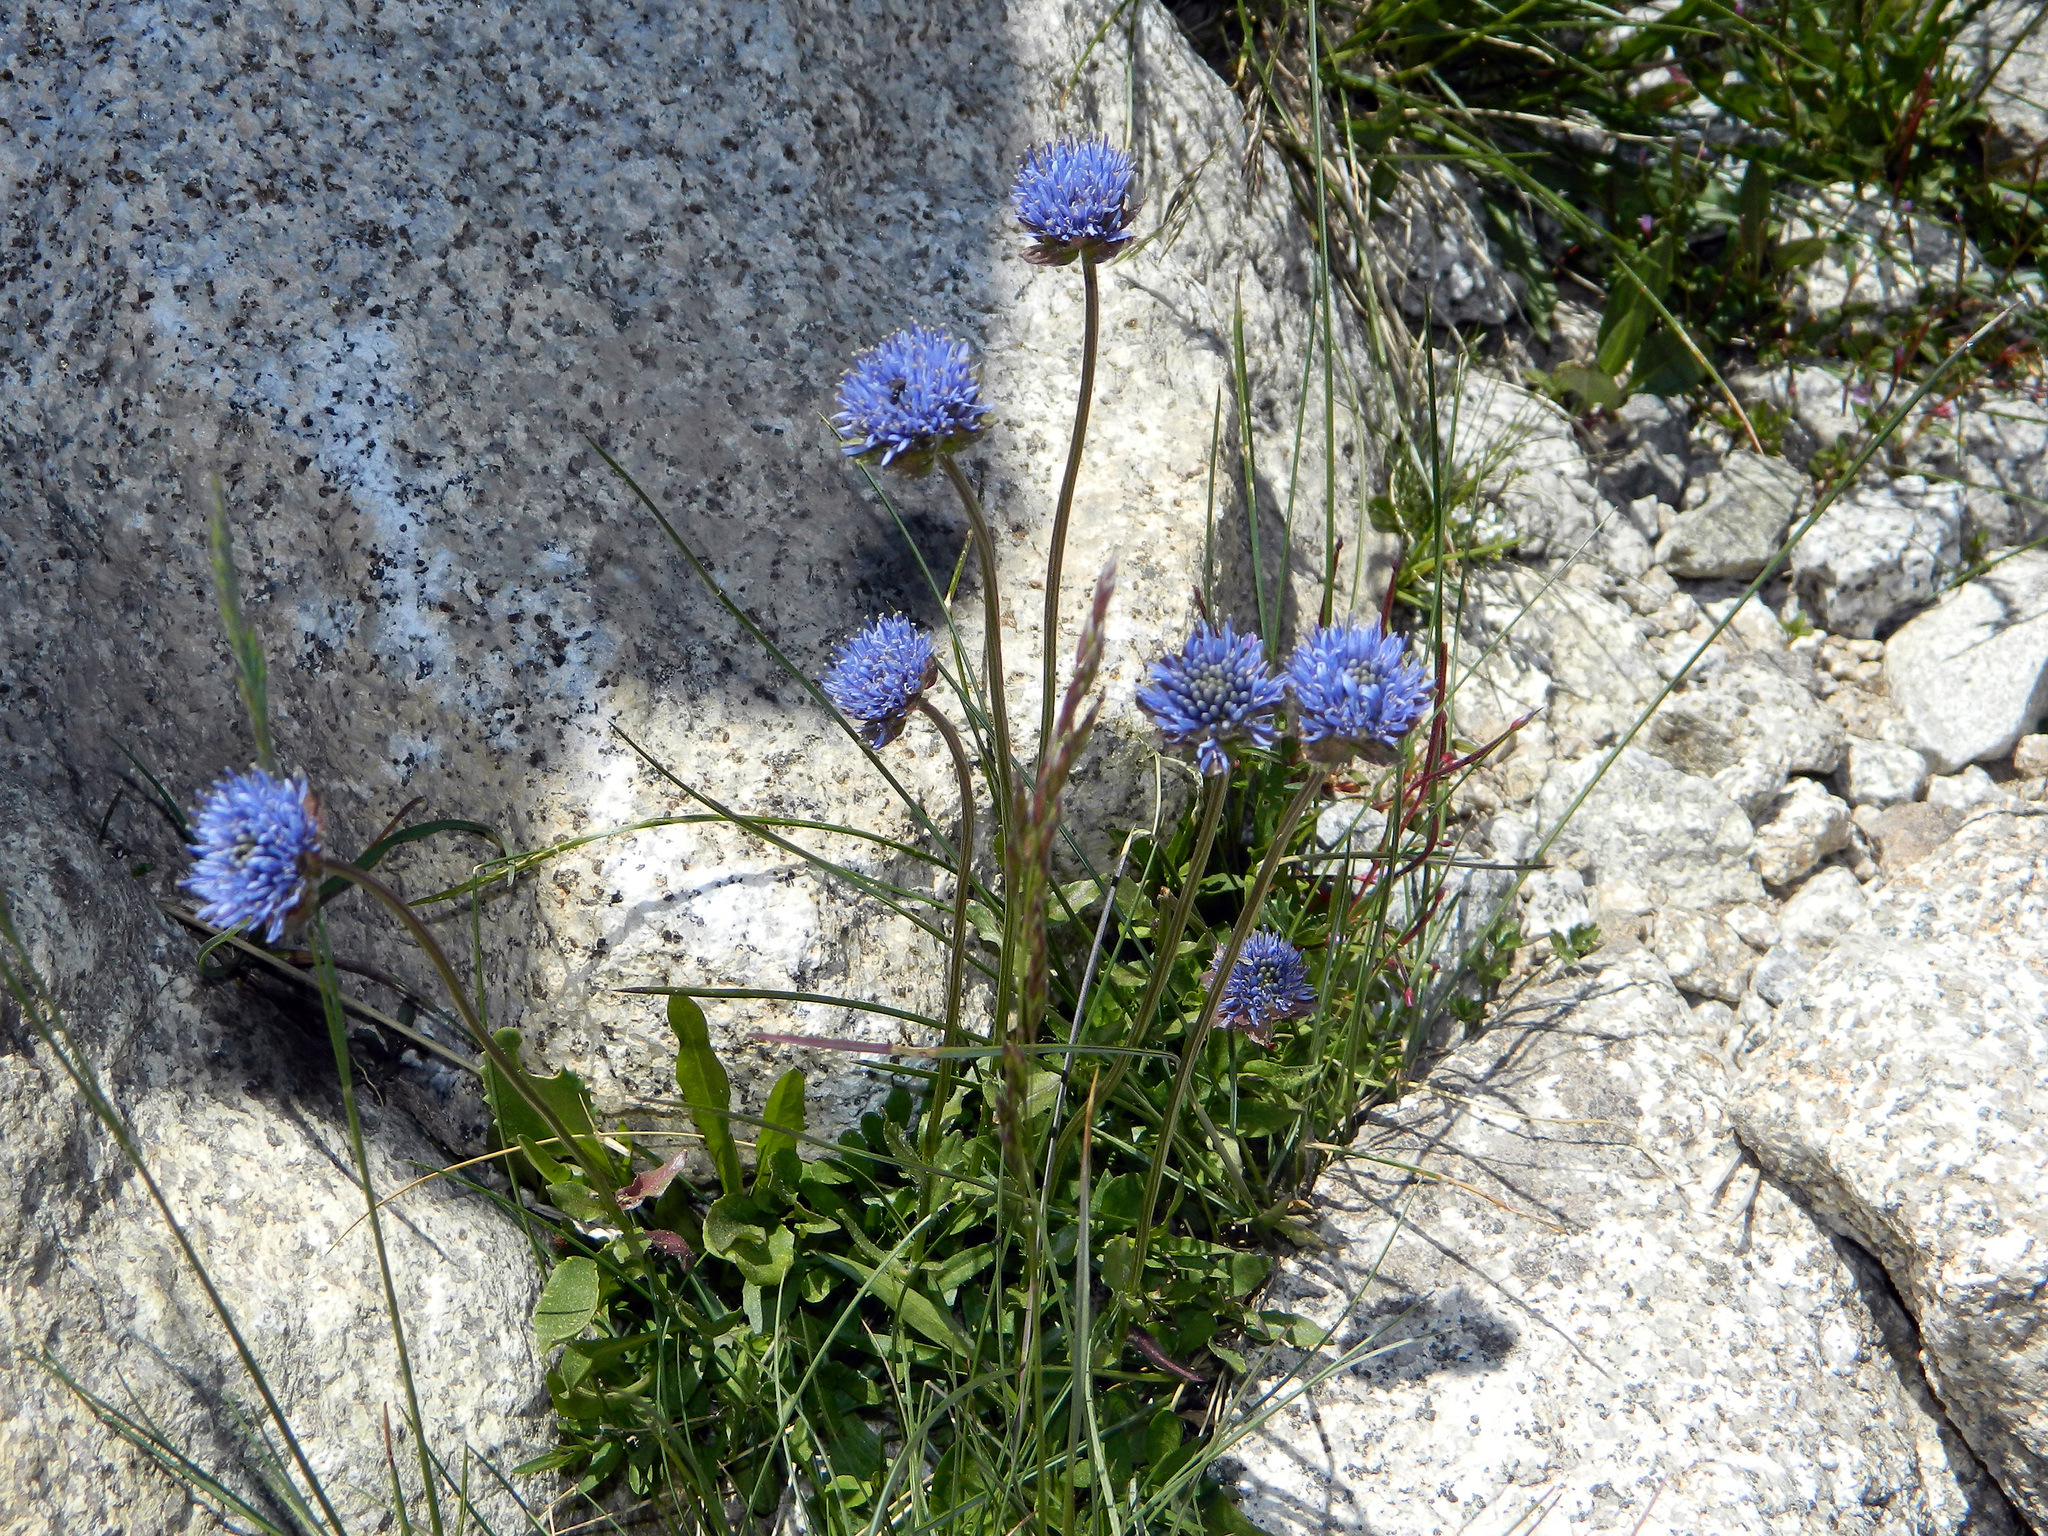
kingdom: Plantae
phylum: Tracheophyta
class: Magnoliopsida
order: Asterales
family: Campanulaceae
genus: Jasione
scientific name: Jasione laevis
